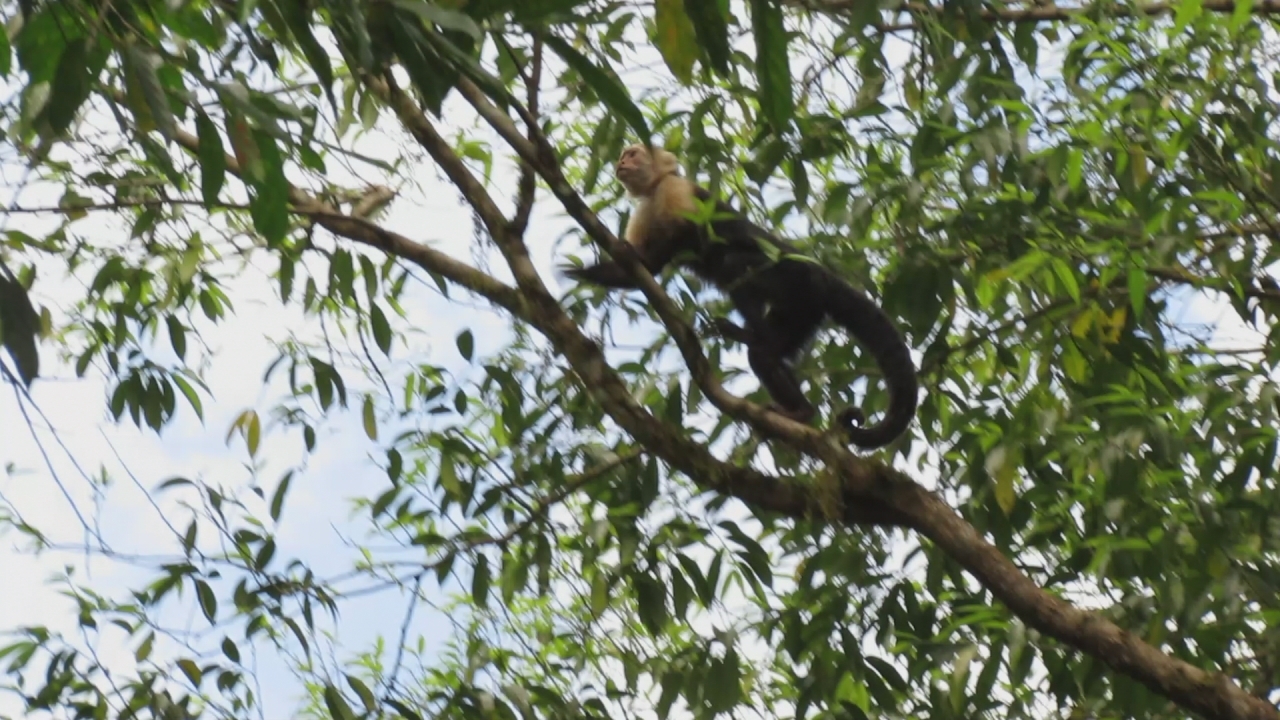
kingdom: Animalia
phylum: Chordata
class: Mammalia
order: Primates
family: Cebidae
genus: Cebus
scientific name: Cebus imitator
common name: Panamanian white-faced capuchin
